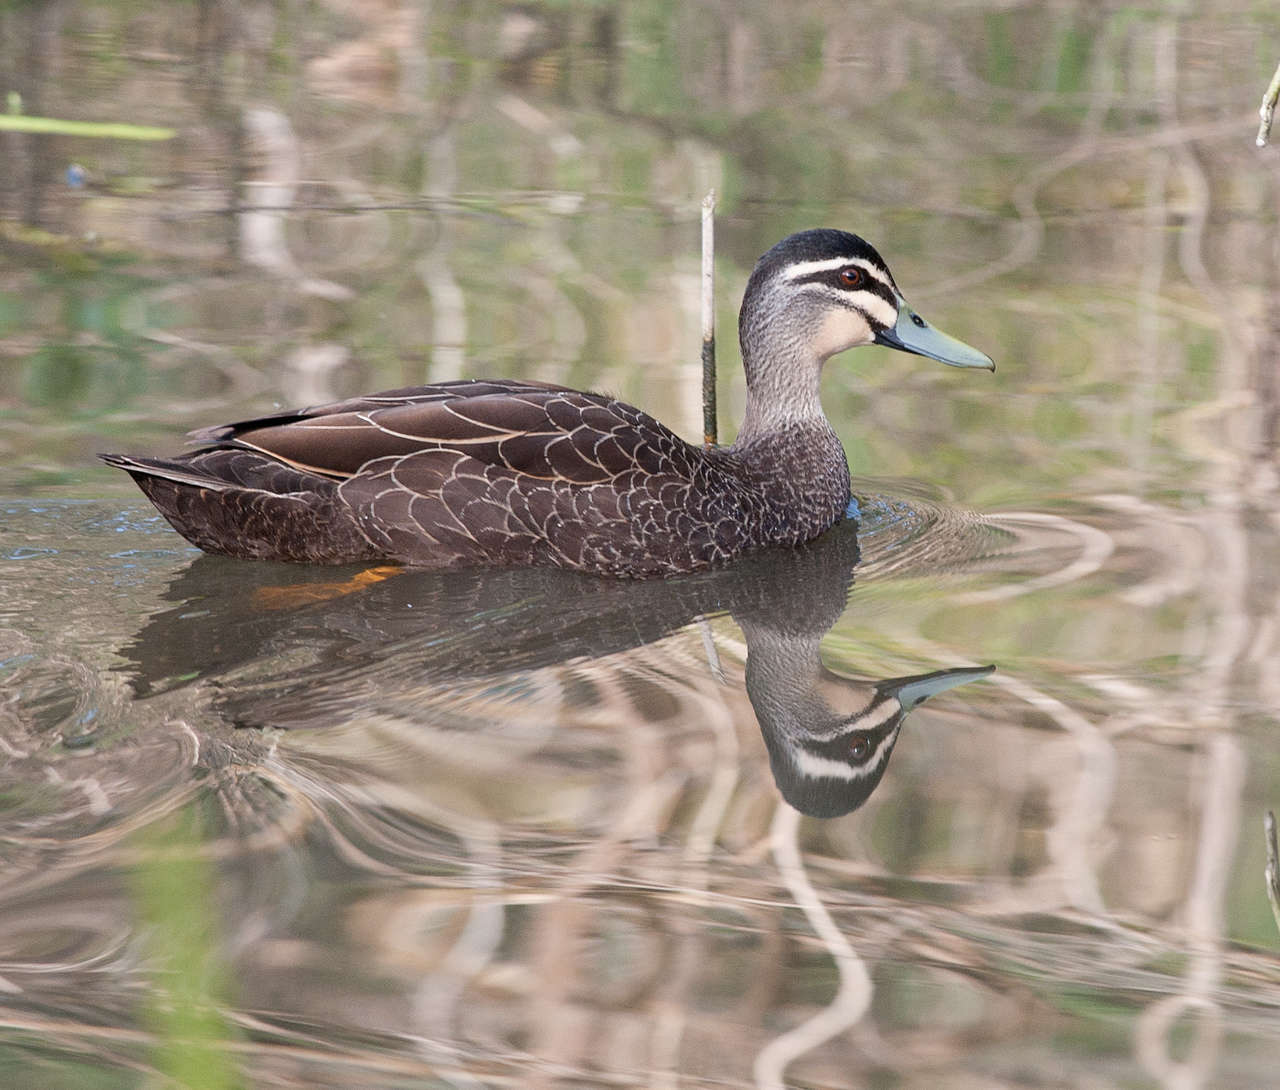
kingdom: Animalia
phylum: Chordata
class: Aves
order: Anseriformes
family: Anatidae
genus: Anas
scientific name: Anas
